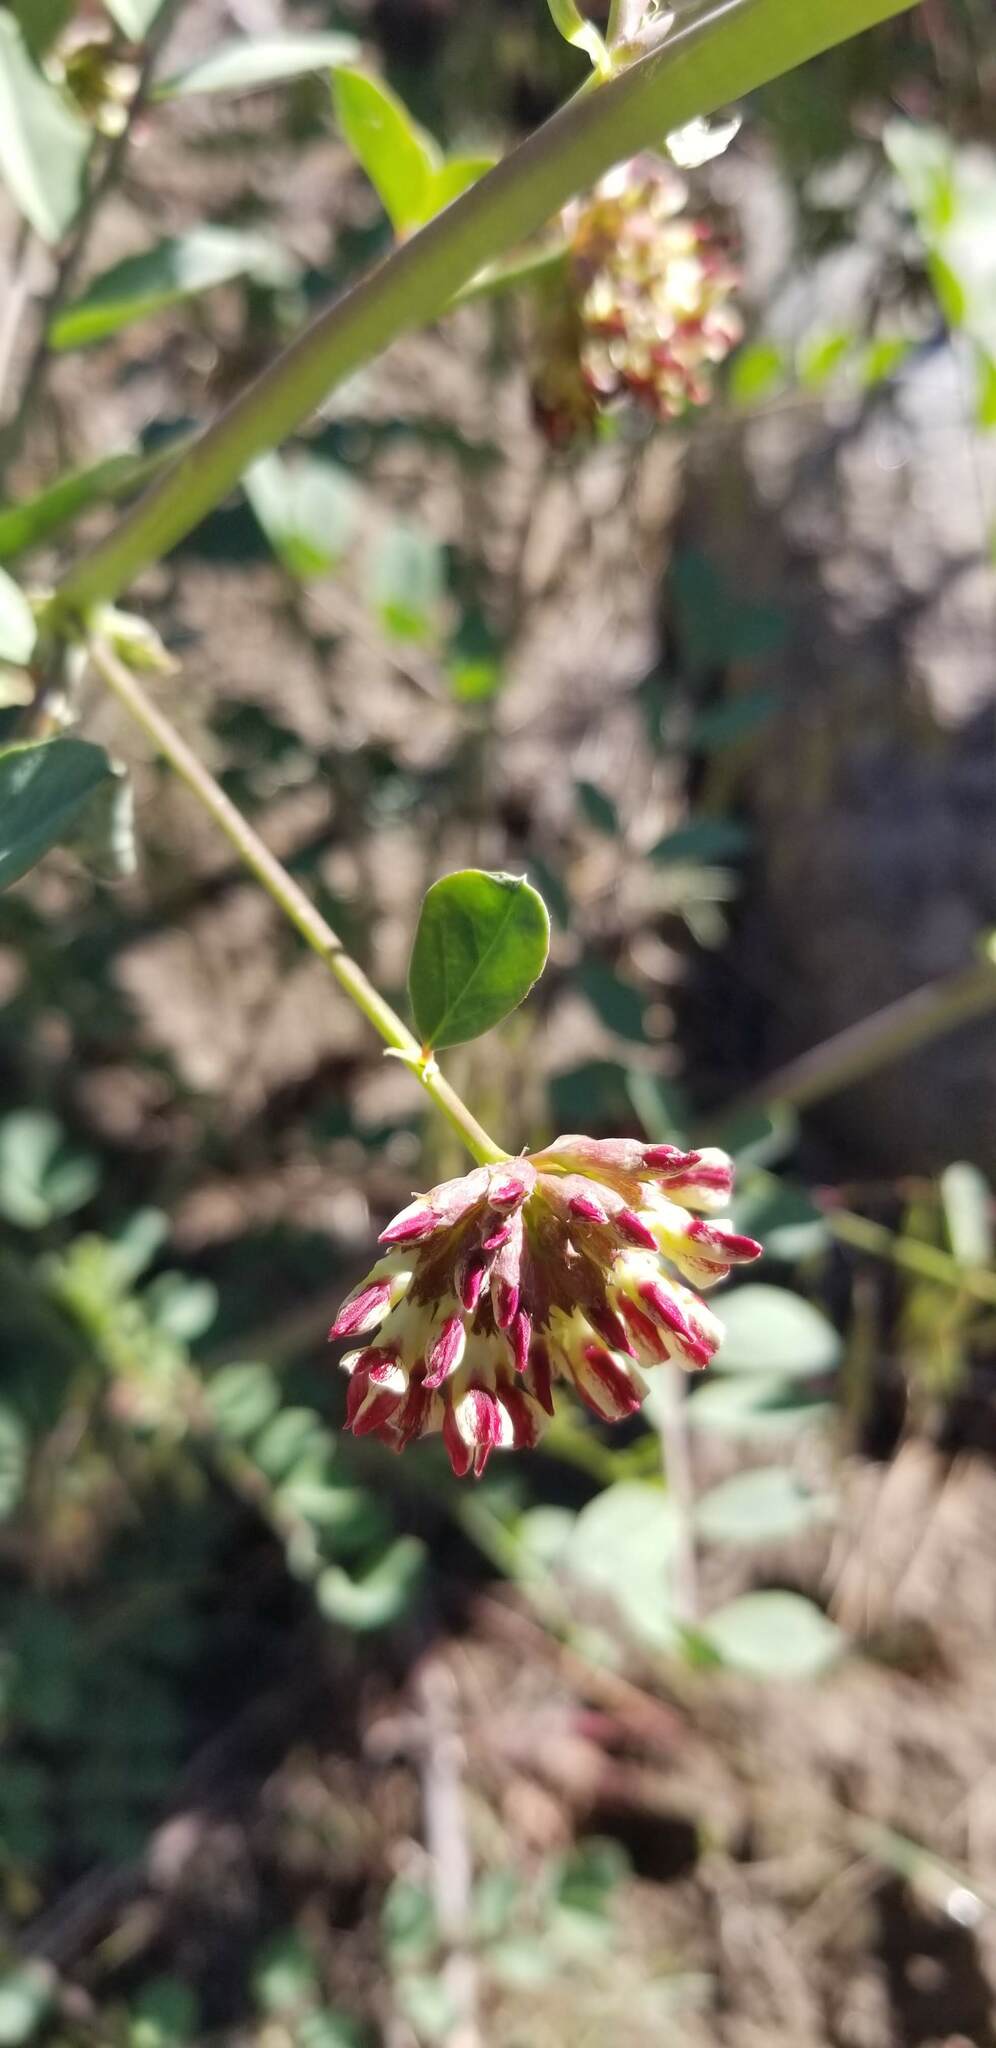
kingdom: Plantae
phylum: Tracheophyta
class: Magnoliopsida
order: Fabales
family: Fabaceae
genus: Hosackia
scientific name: Hosackia crassifolia
